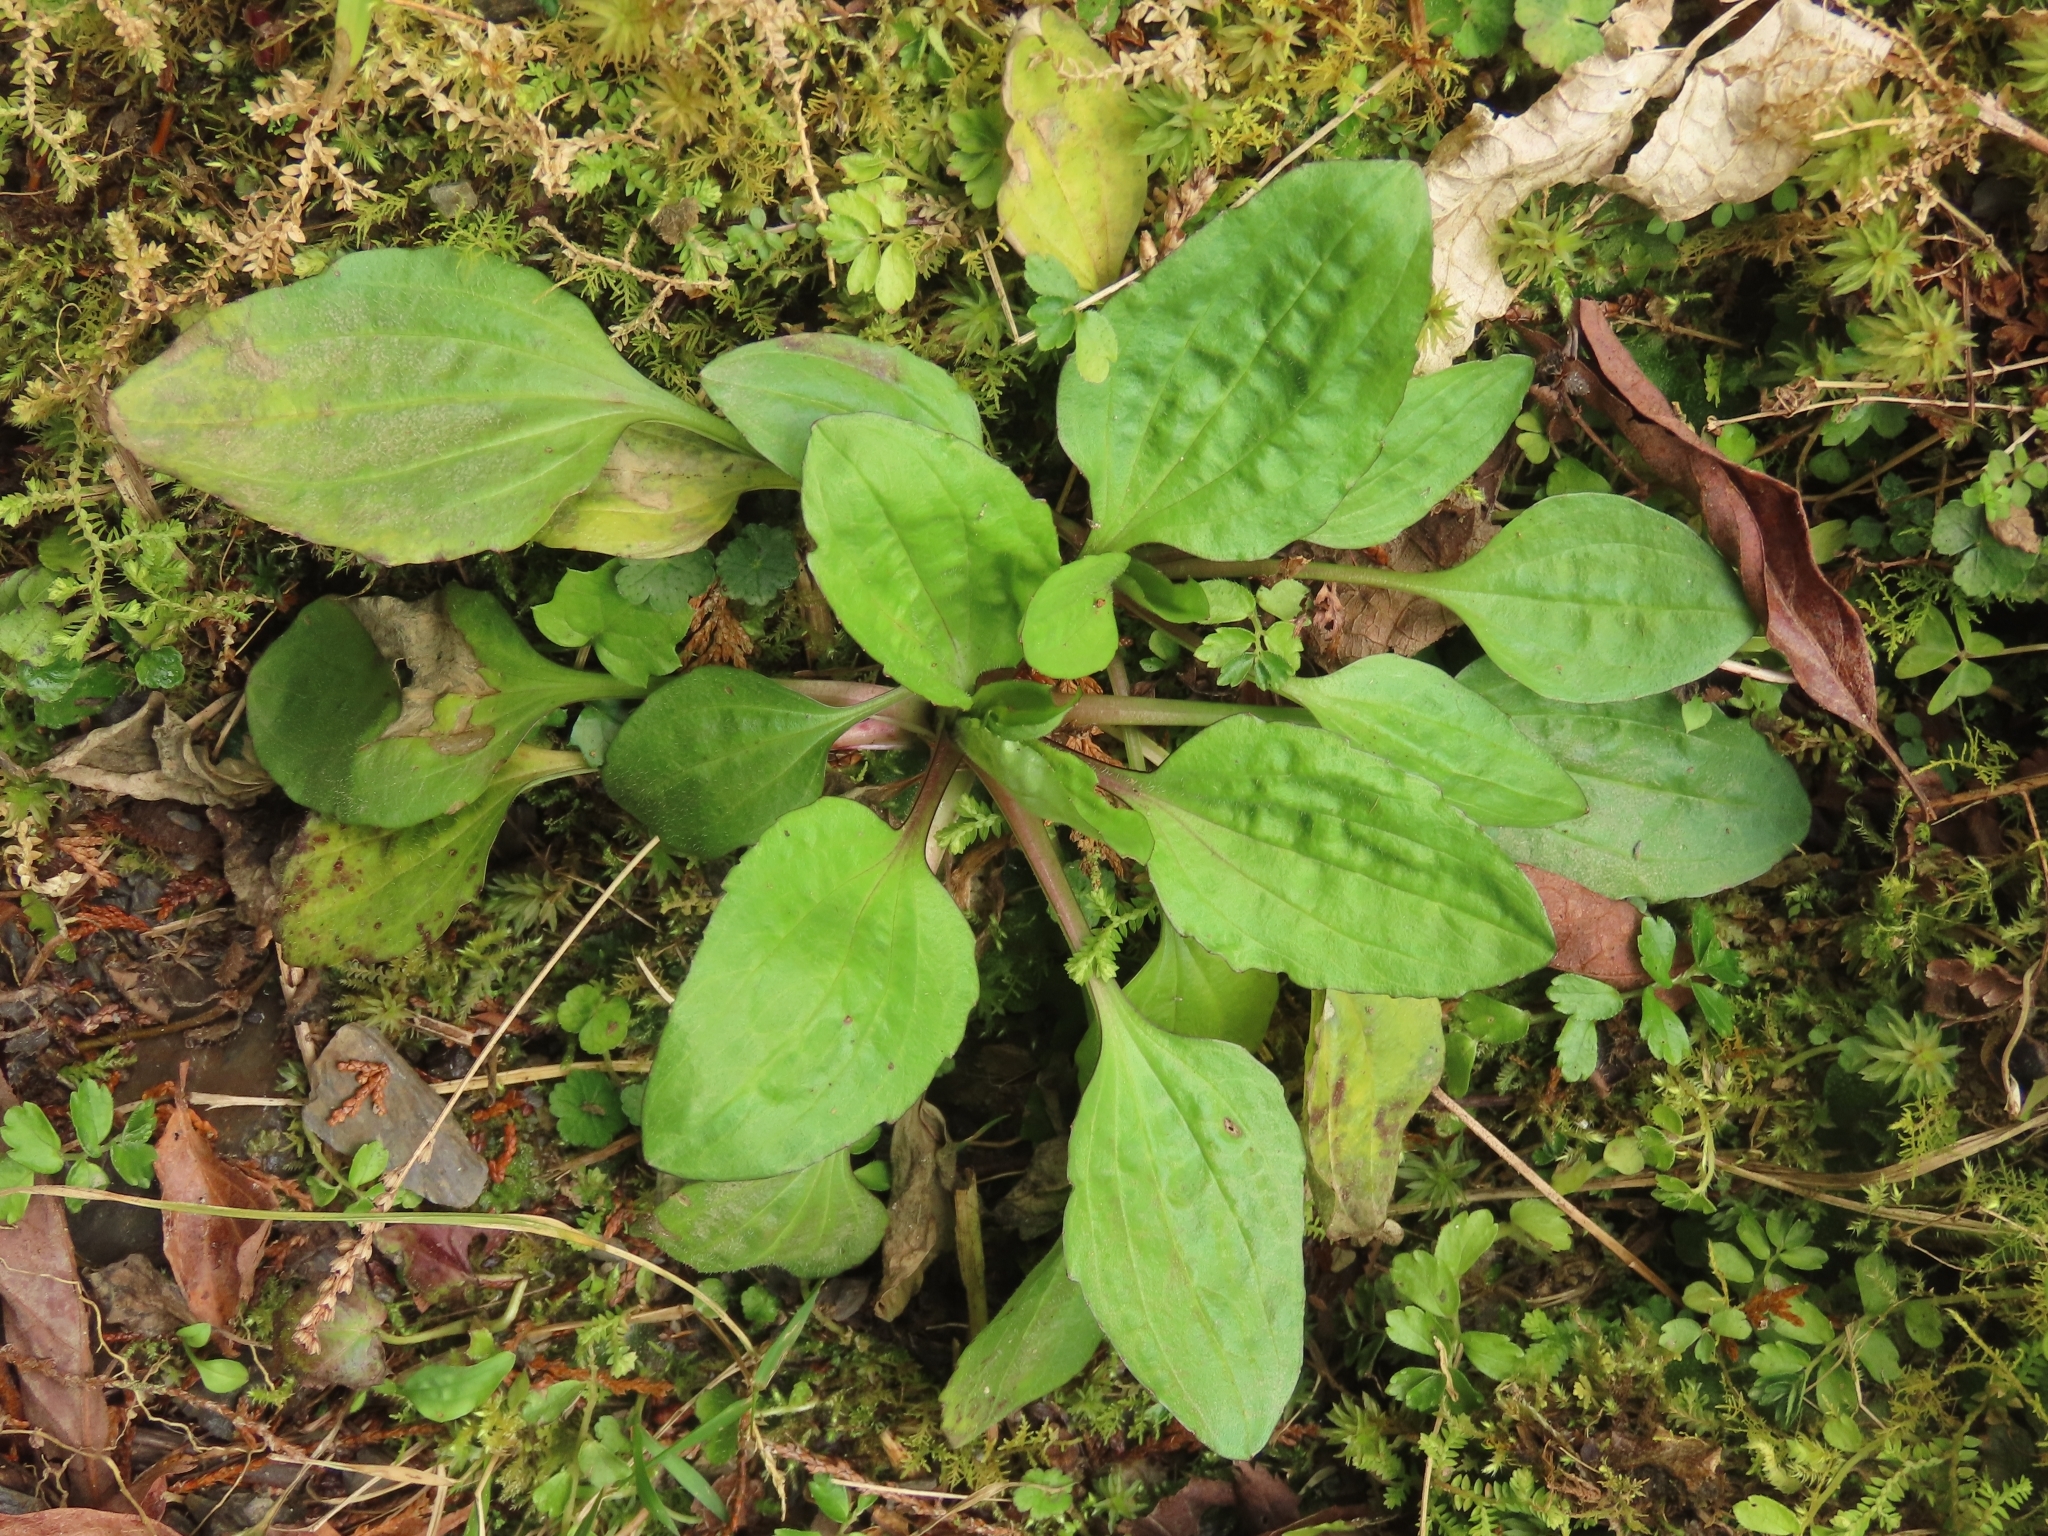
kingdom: Plantae
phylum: Tracheophyta
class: Magnoliopsida
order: Lamiales
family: Plantaginaceae
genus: Plantago
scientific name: Plantago asiatica
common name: Psyllium
